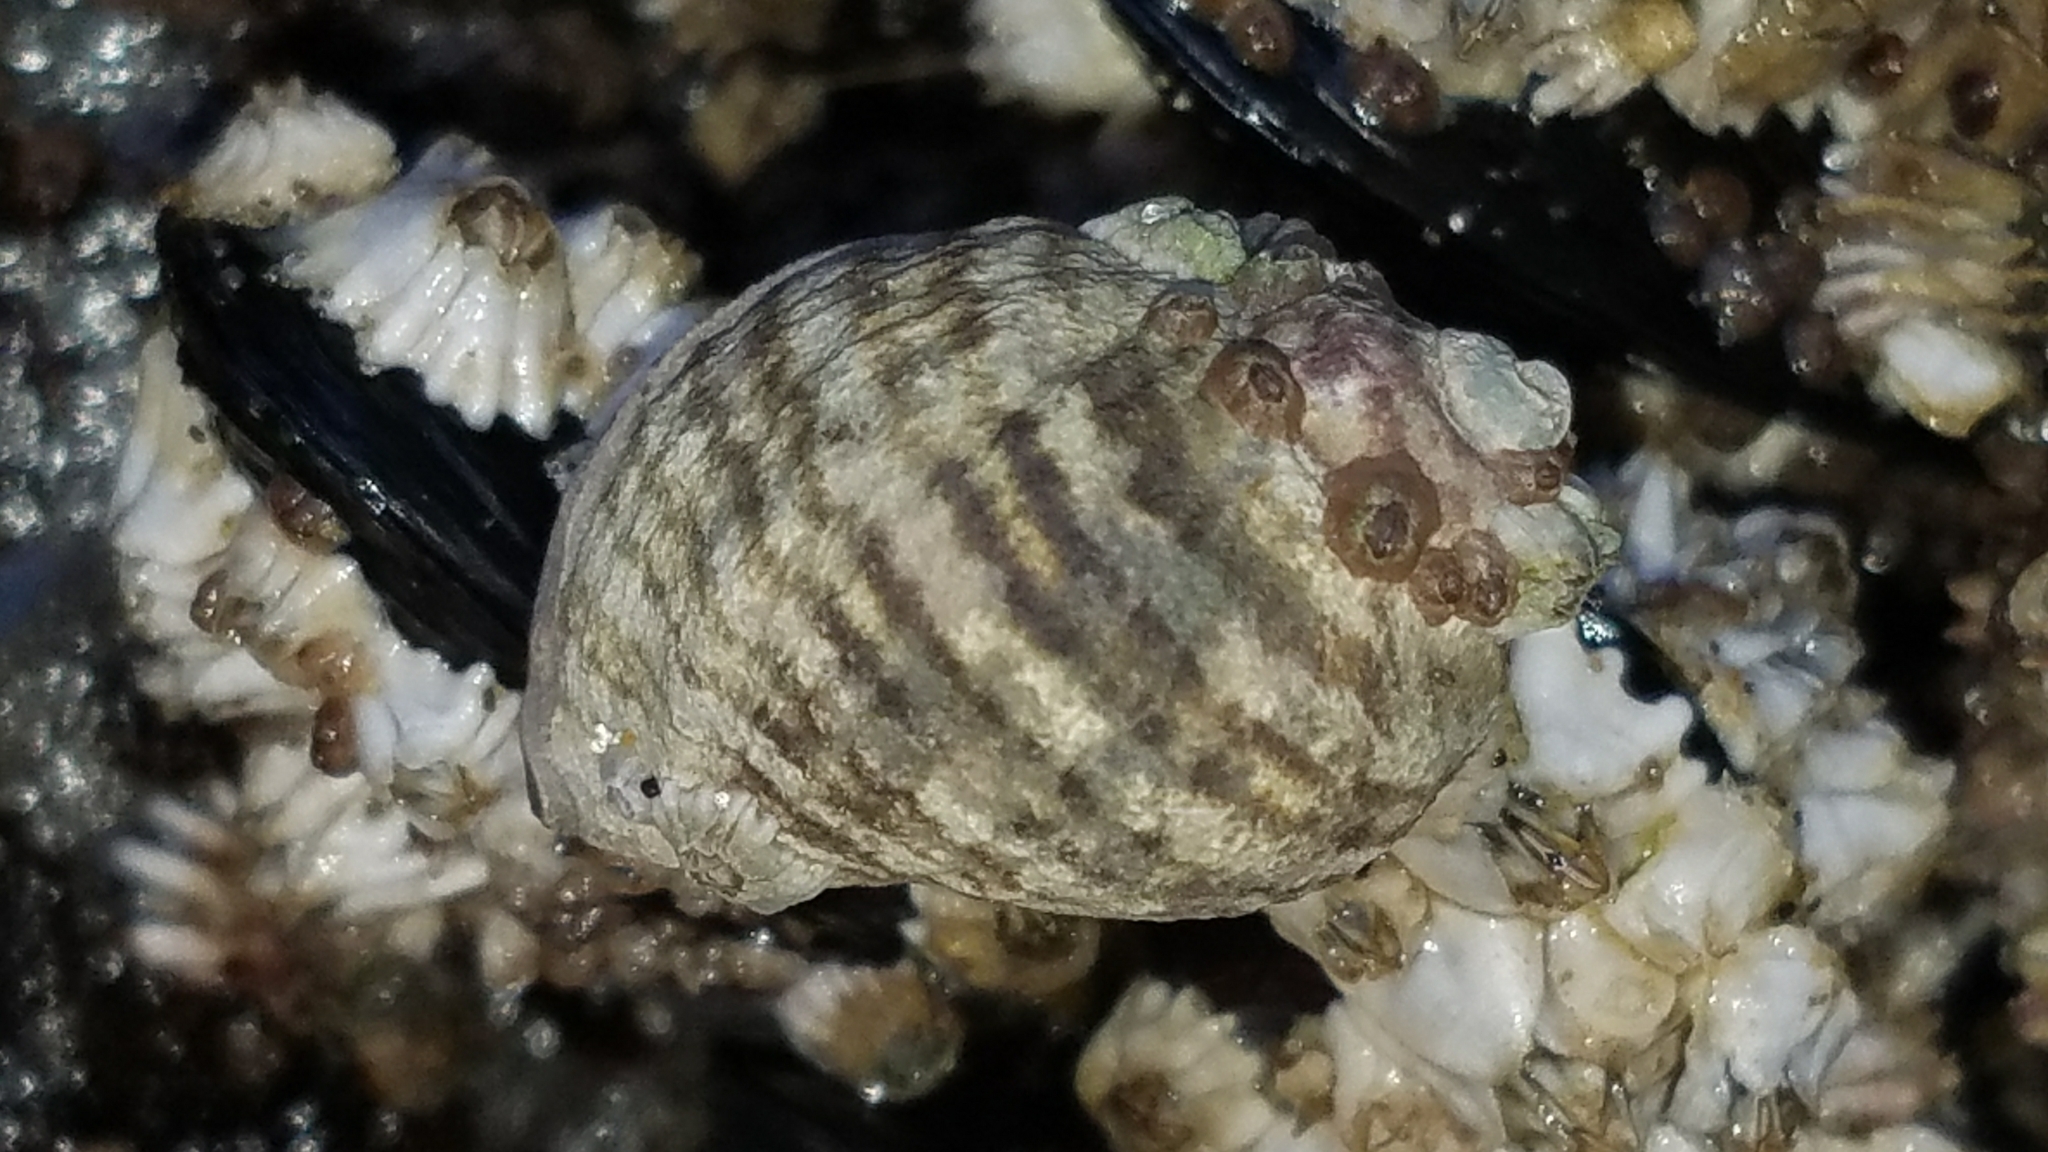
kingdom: Animalia
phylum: Mollusca
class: Gastropoda
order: Neogastropoda
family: Muricidae
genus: Nucella
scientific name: Nucella ostrina
